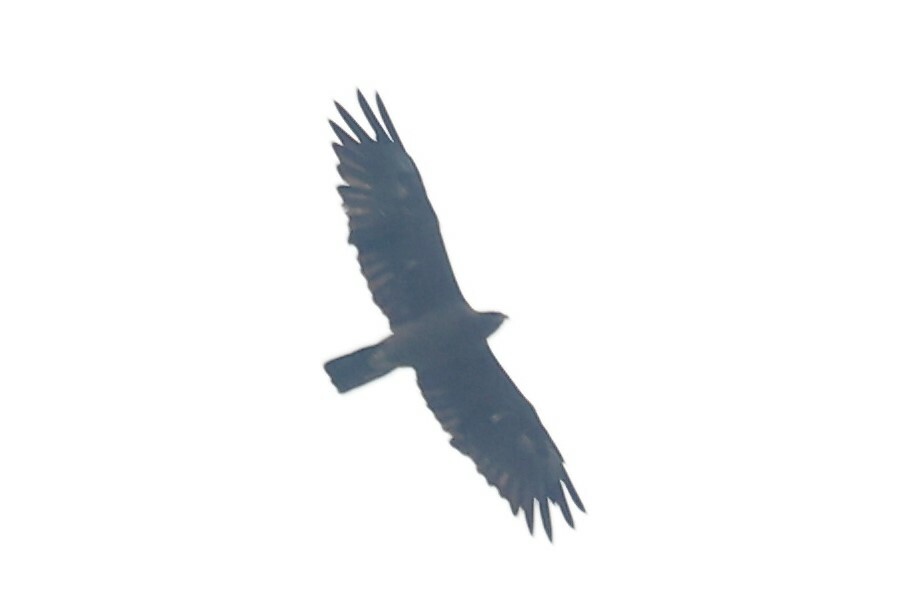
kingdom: Animalia
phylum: Chordata
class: Aves
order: Accipitriformes
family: Accipitridae
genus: Hieraaetus
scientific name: Hieraaetus wahlbergi
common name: Wahlberg's eagle
